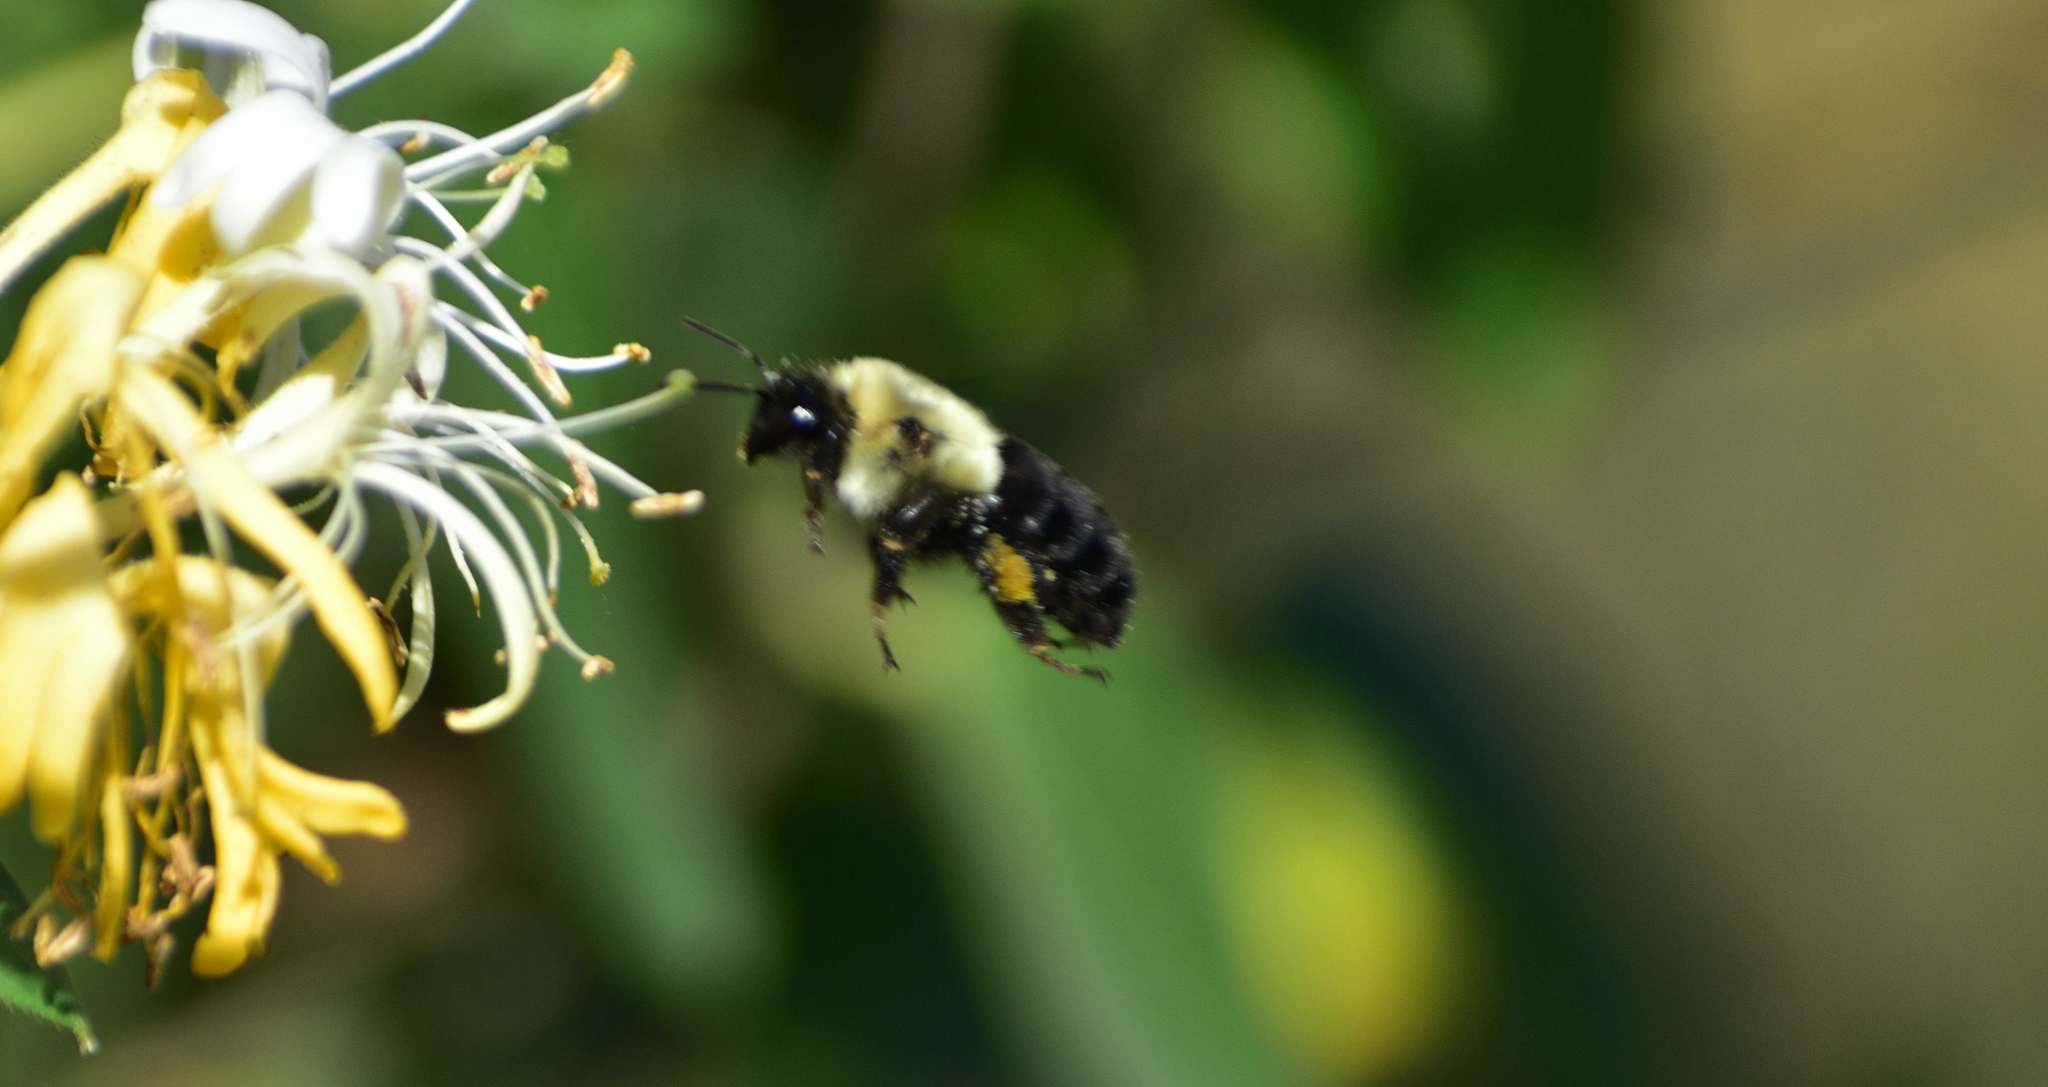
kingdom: Animalia
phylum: Arthropoda
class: Insecta
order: Hymenoptera
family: Apidae
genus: Bombus
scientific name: Bombus impatiens
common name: Common eastern bumble bee
